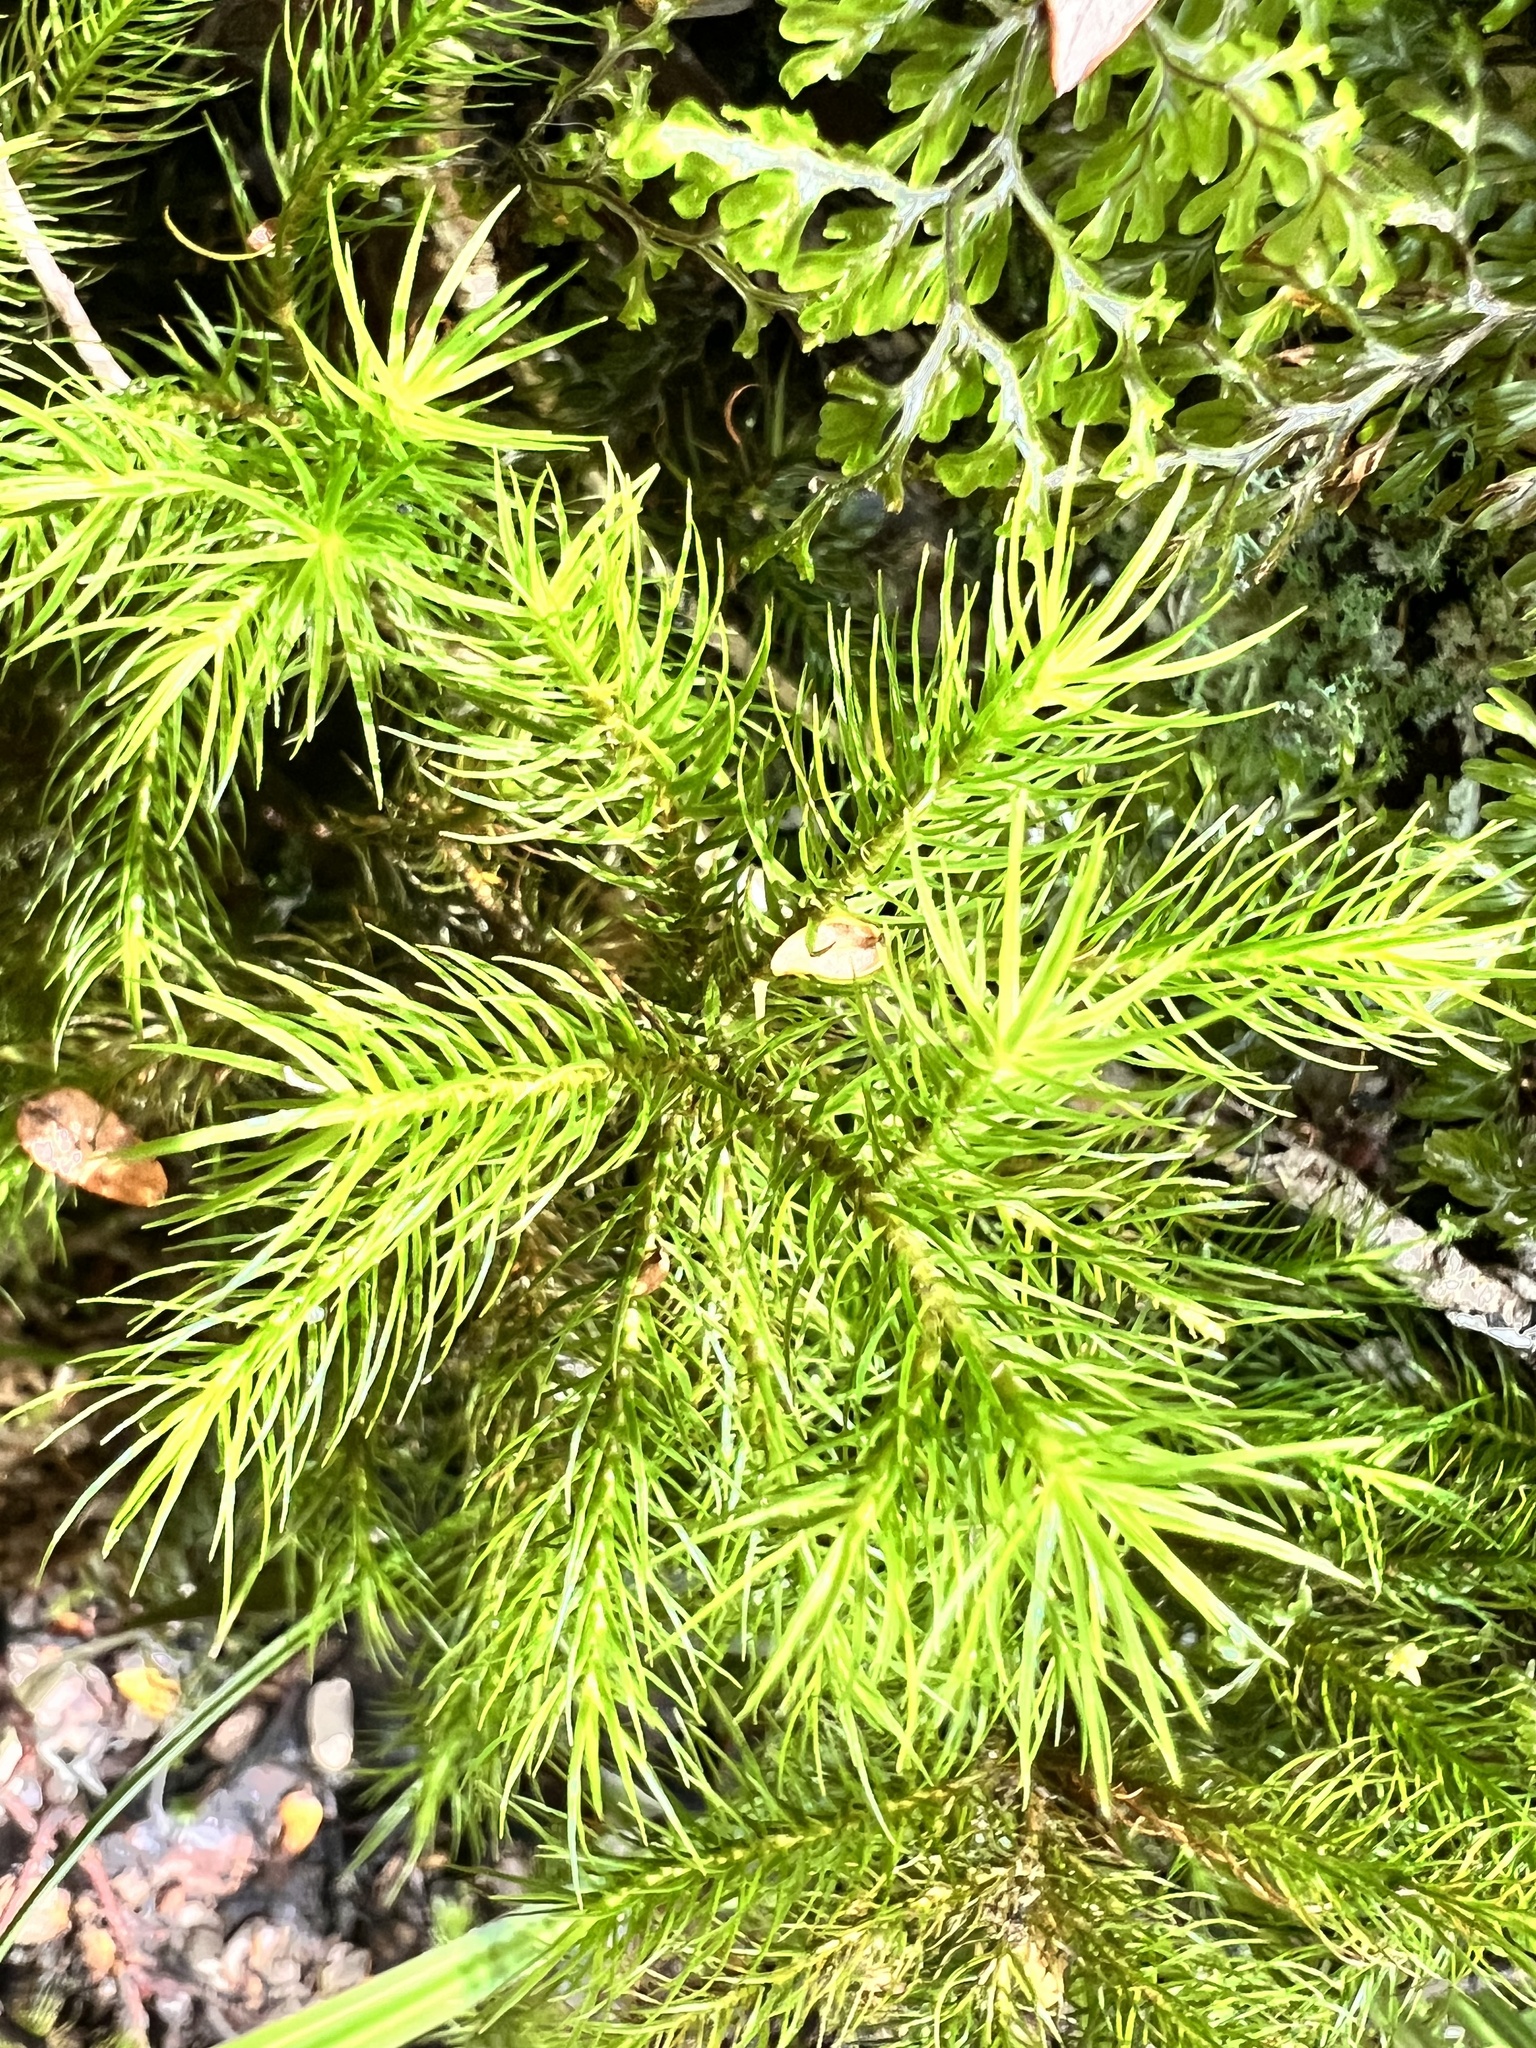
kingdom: Plantae
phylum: Bryophyta
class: Polytrichopsida
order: Polytrichales
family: Polytrichaceae
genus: Dendroligotrichum
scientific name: Dendroligotrichum tongariroense
